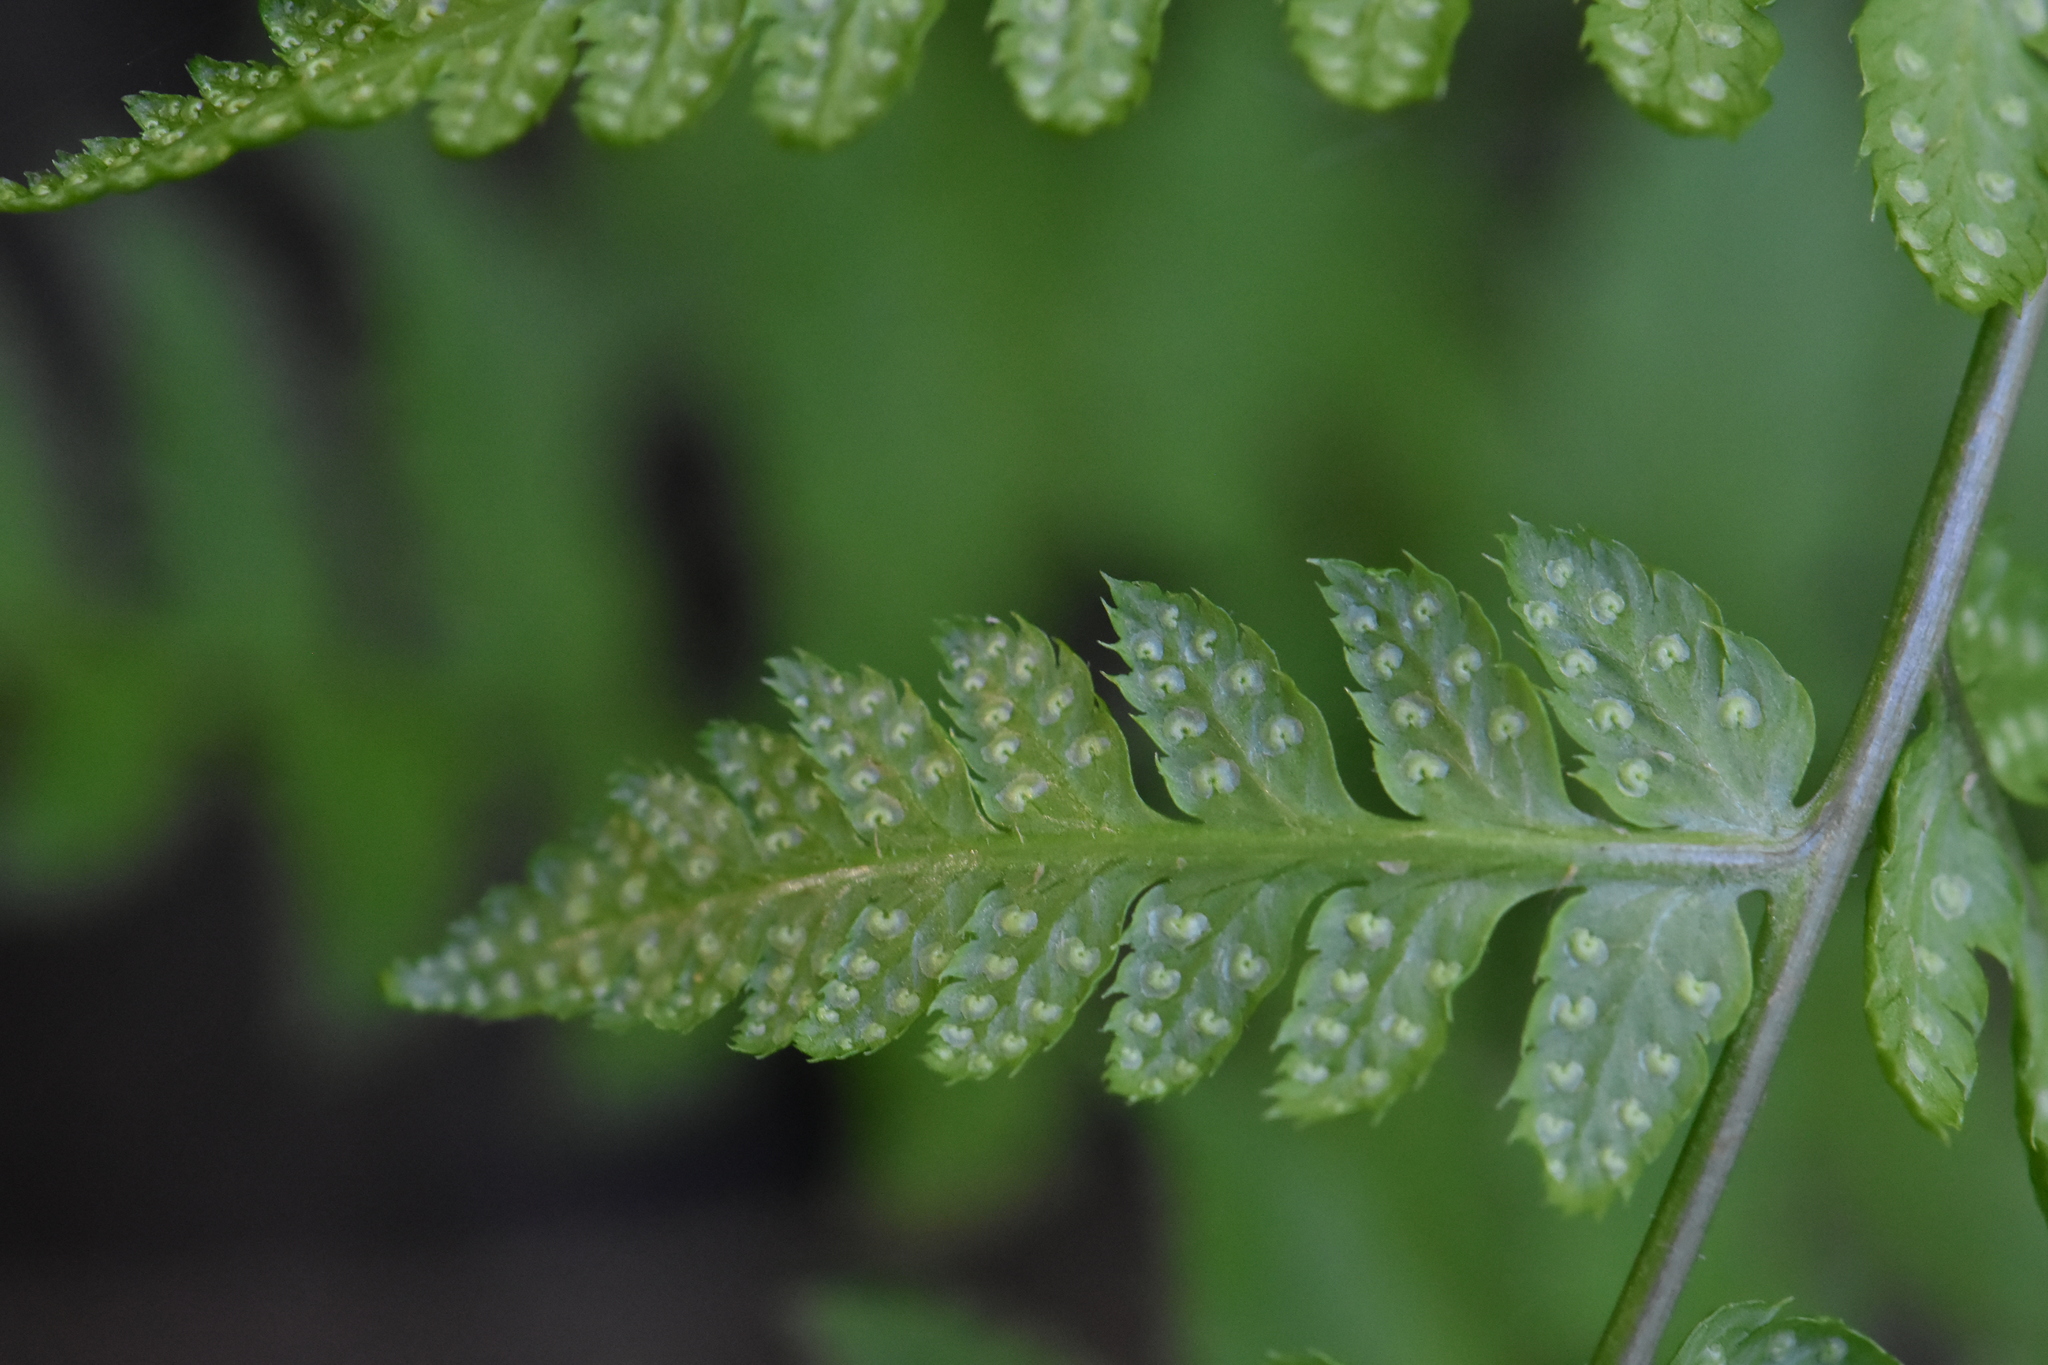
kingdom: Plantae
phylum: Tracheophyta
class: Polypodiopsida
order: Polypodiales
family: Dryopteridaceae
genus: Dryopteris
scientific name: Dryopteris carthusiana
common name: Narrow buckler-fern
